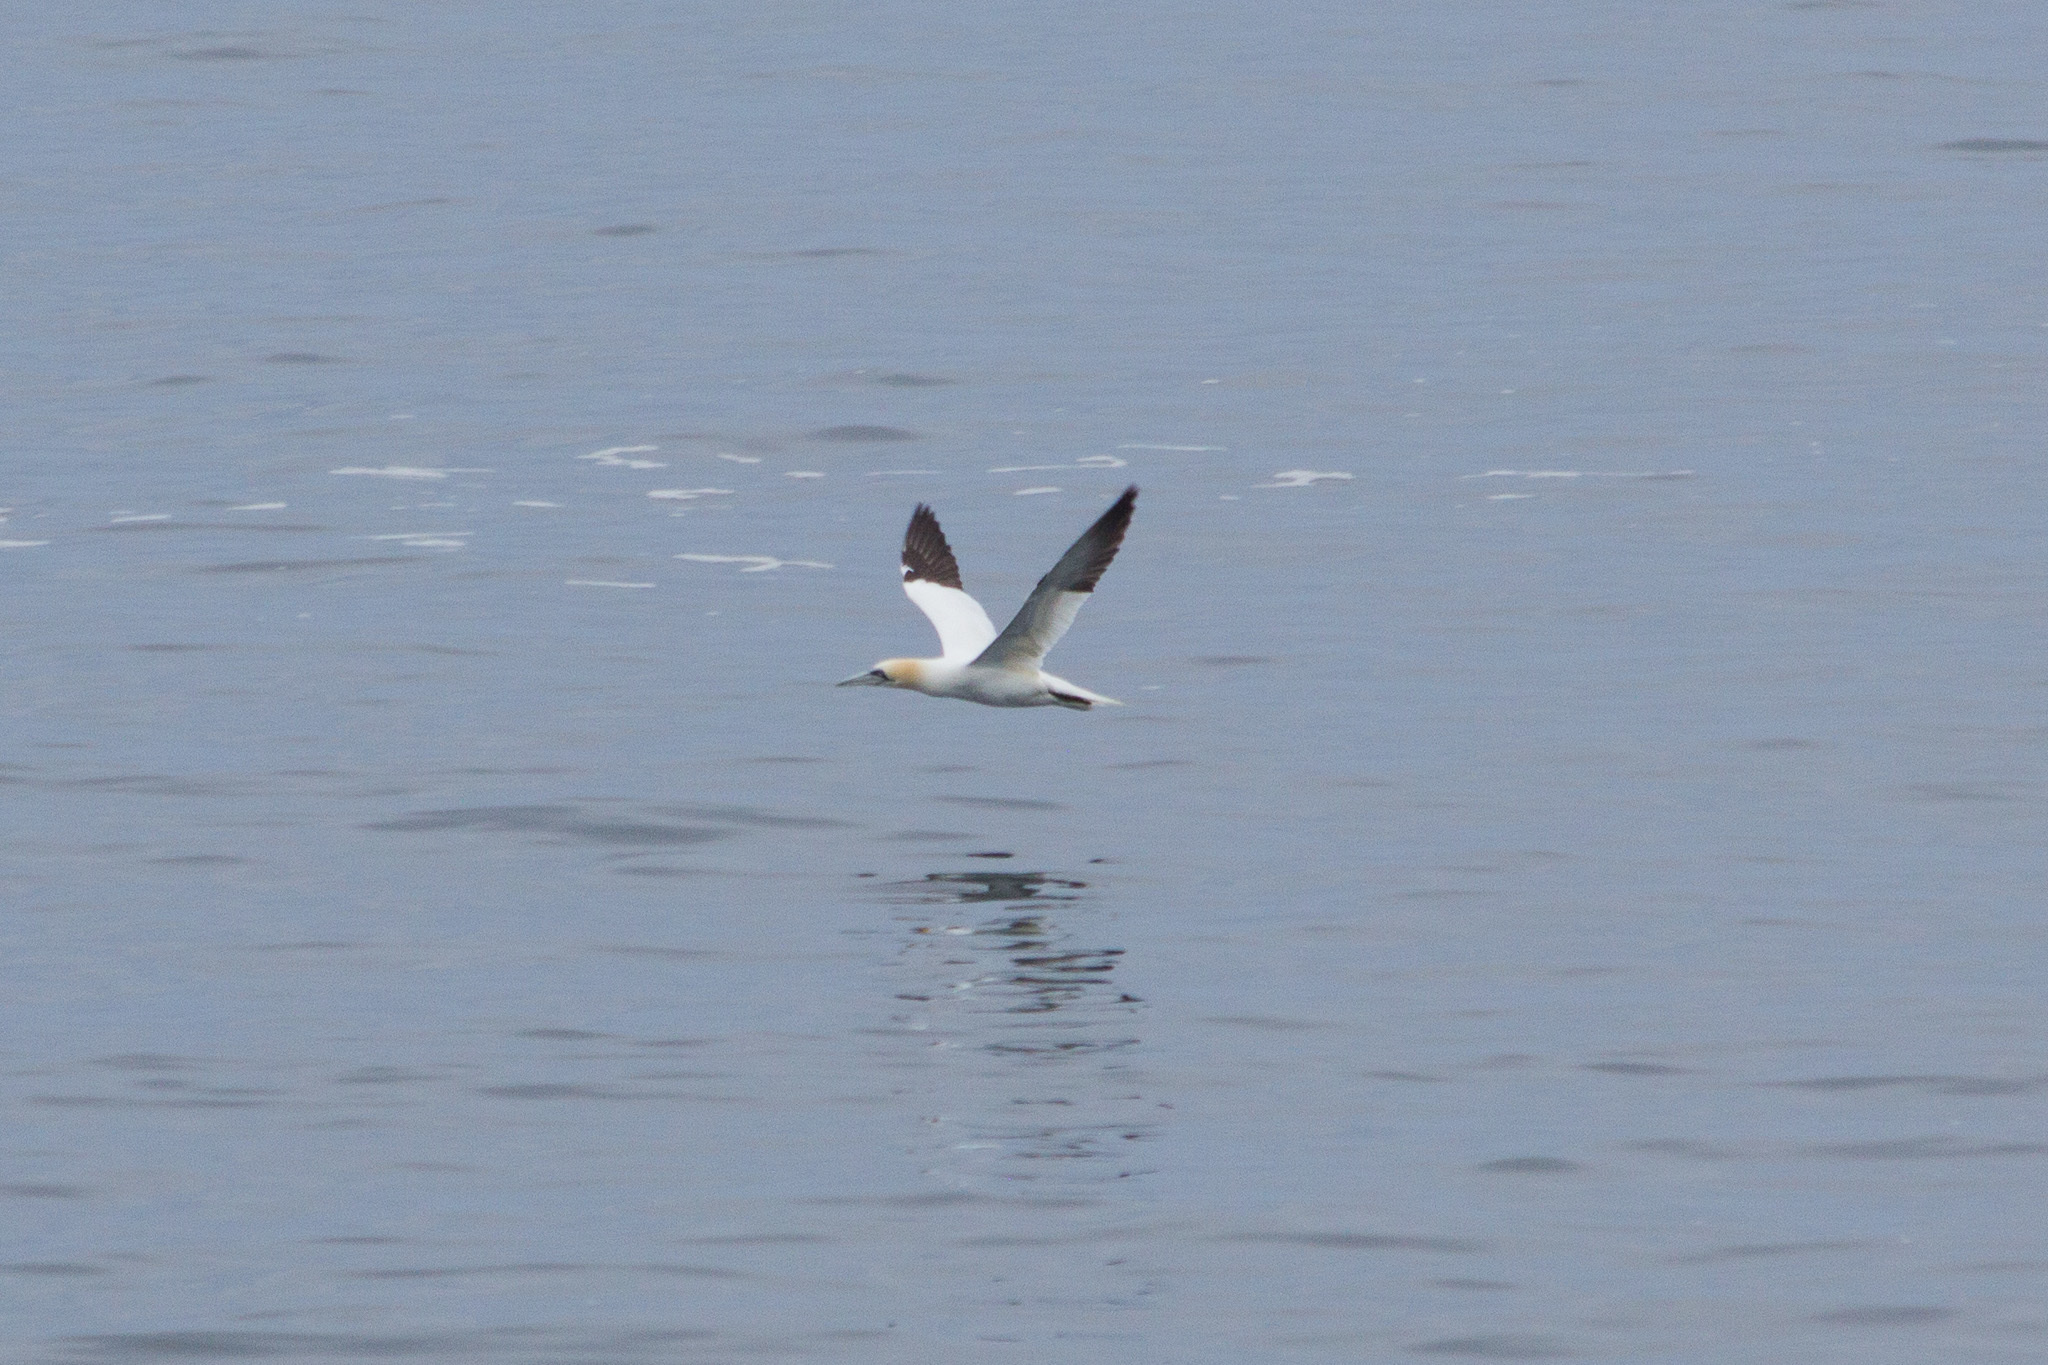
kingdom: Animalia
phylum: Chordata
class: Aves
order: Suliformes
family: Sulidae
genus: Morus
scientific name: Morus bassanus
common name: Northern gannet
